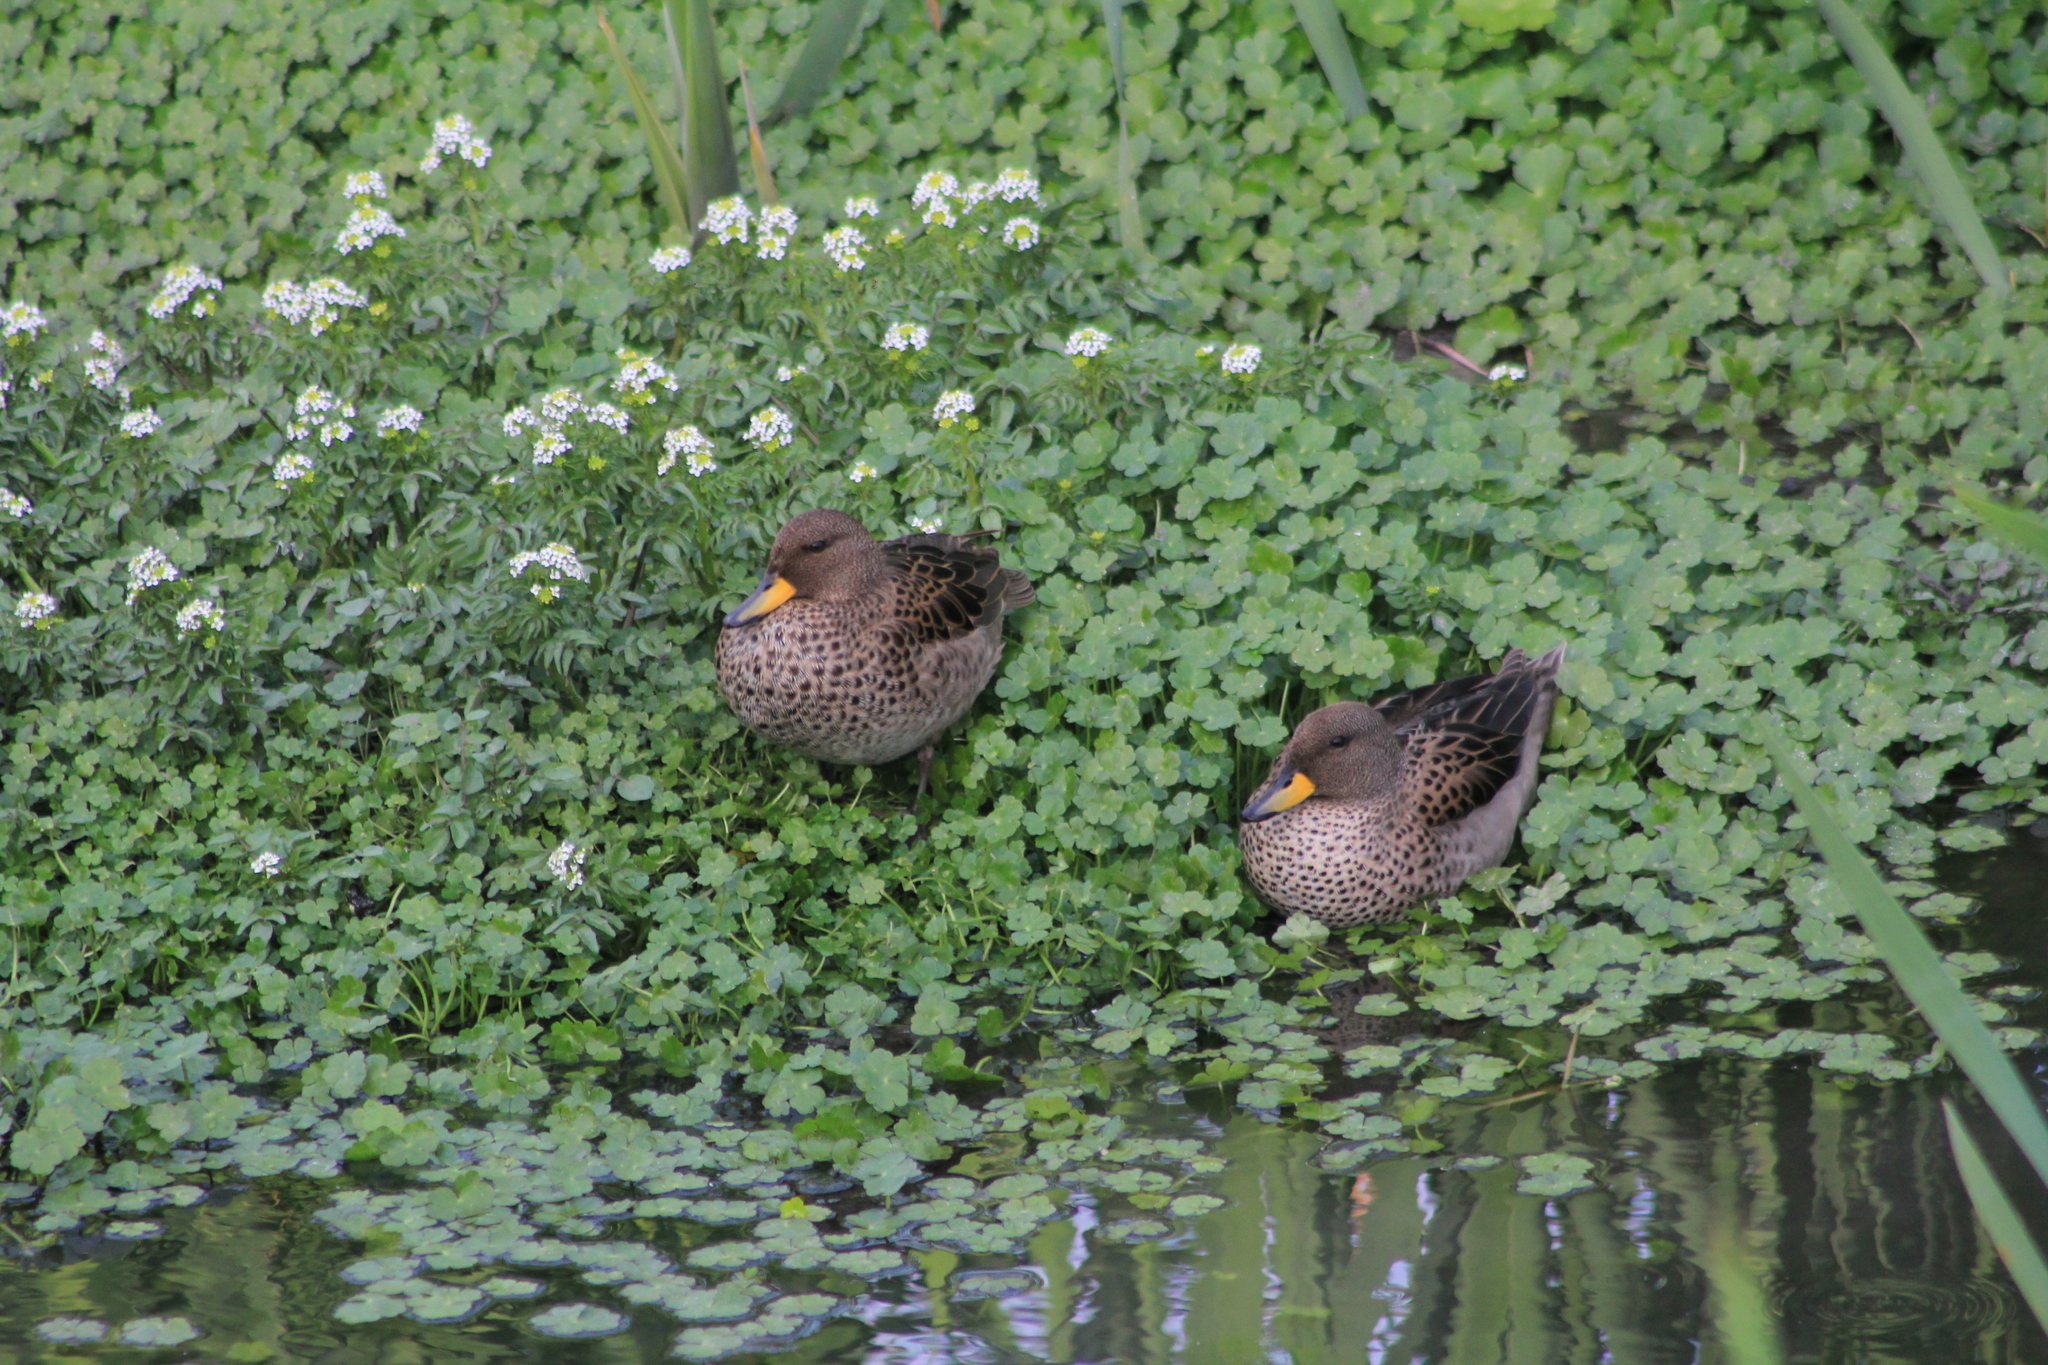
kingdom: Animalia
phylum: Chordata
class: Aves
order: Anseriformes
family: Anatidae
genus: Anas
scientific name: Anas flavirostris
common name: Yellow-billed teal
